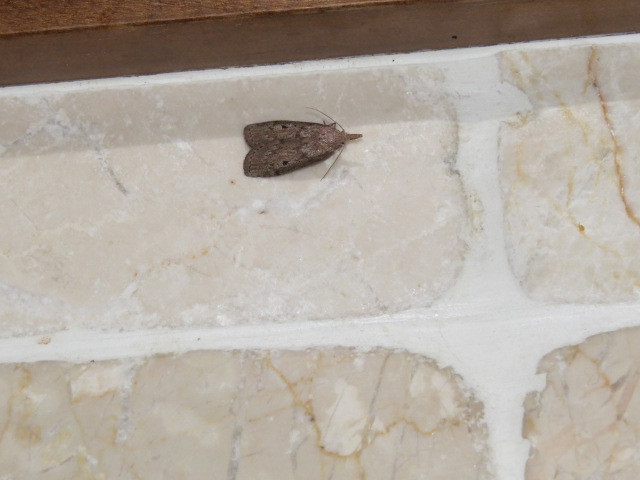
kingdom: Animalia
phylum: Arthropoda
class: Insecta
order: Lepidoptera
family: Pyralidae
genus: Aphomia
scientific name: Aphomia sociella
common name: Bee moth
